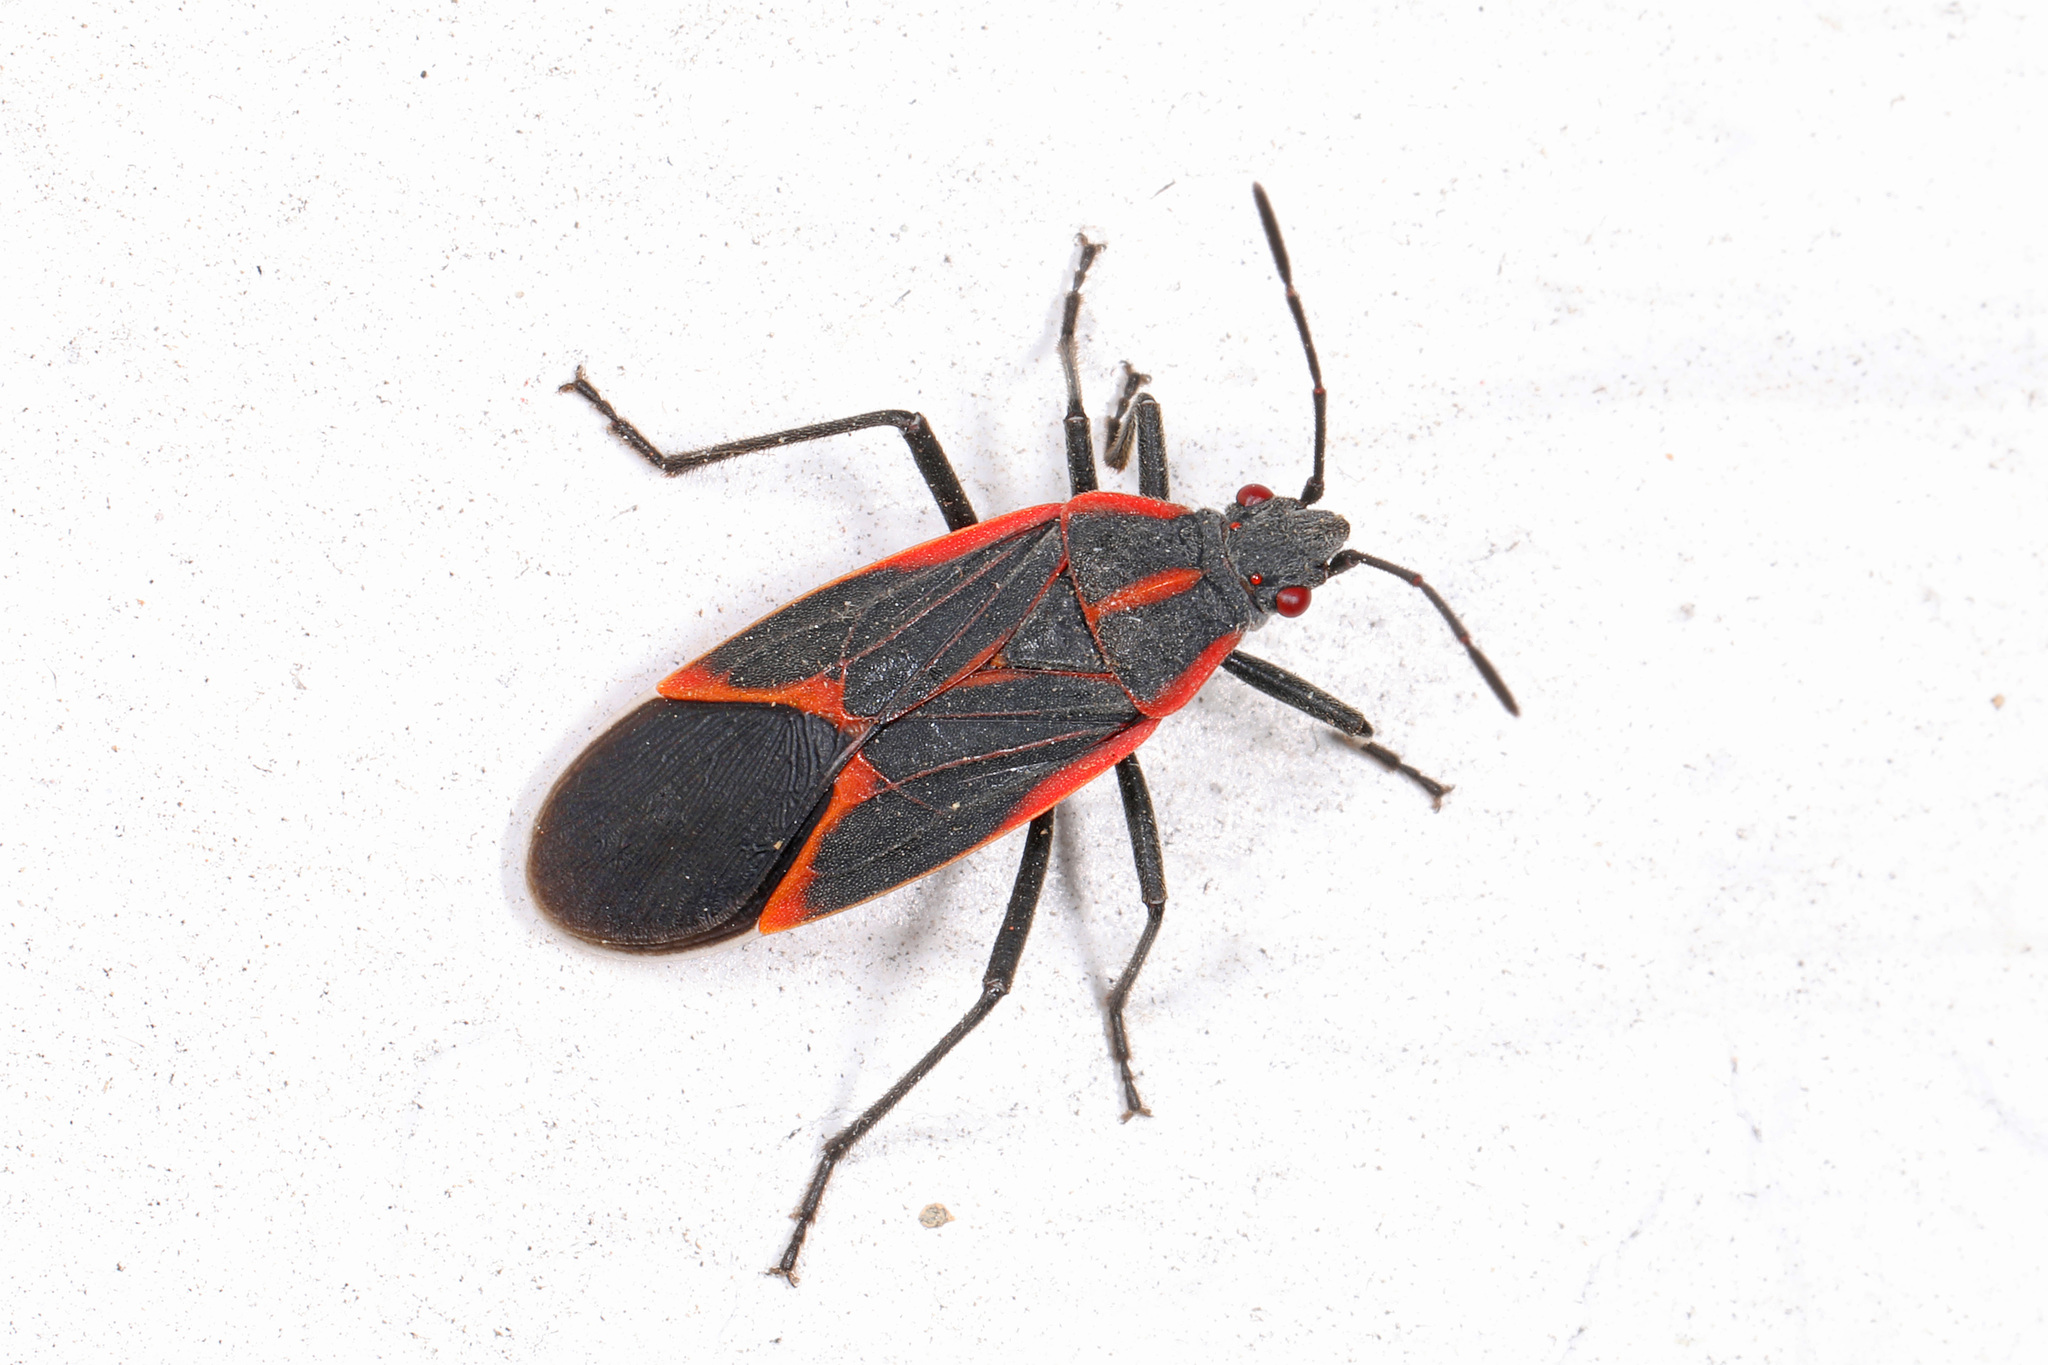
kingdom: Animalia
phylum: Arthropoda
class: Insecta
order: Hemiptera
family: Rhopalidae
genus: Boisea
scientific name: Boisea trivittata
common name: Boxelder bug
